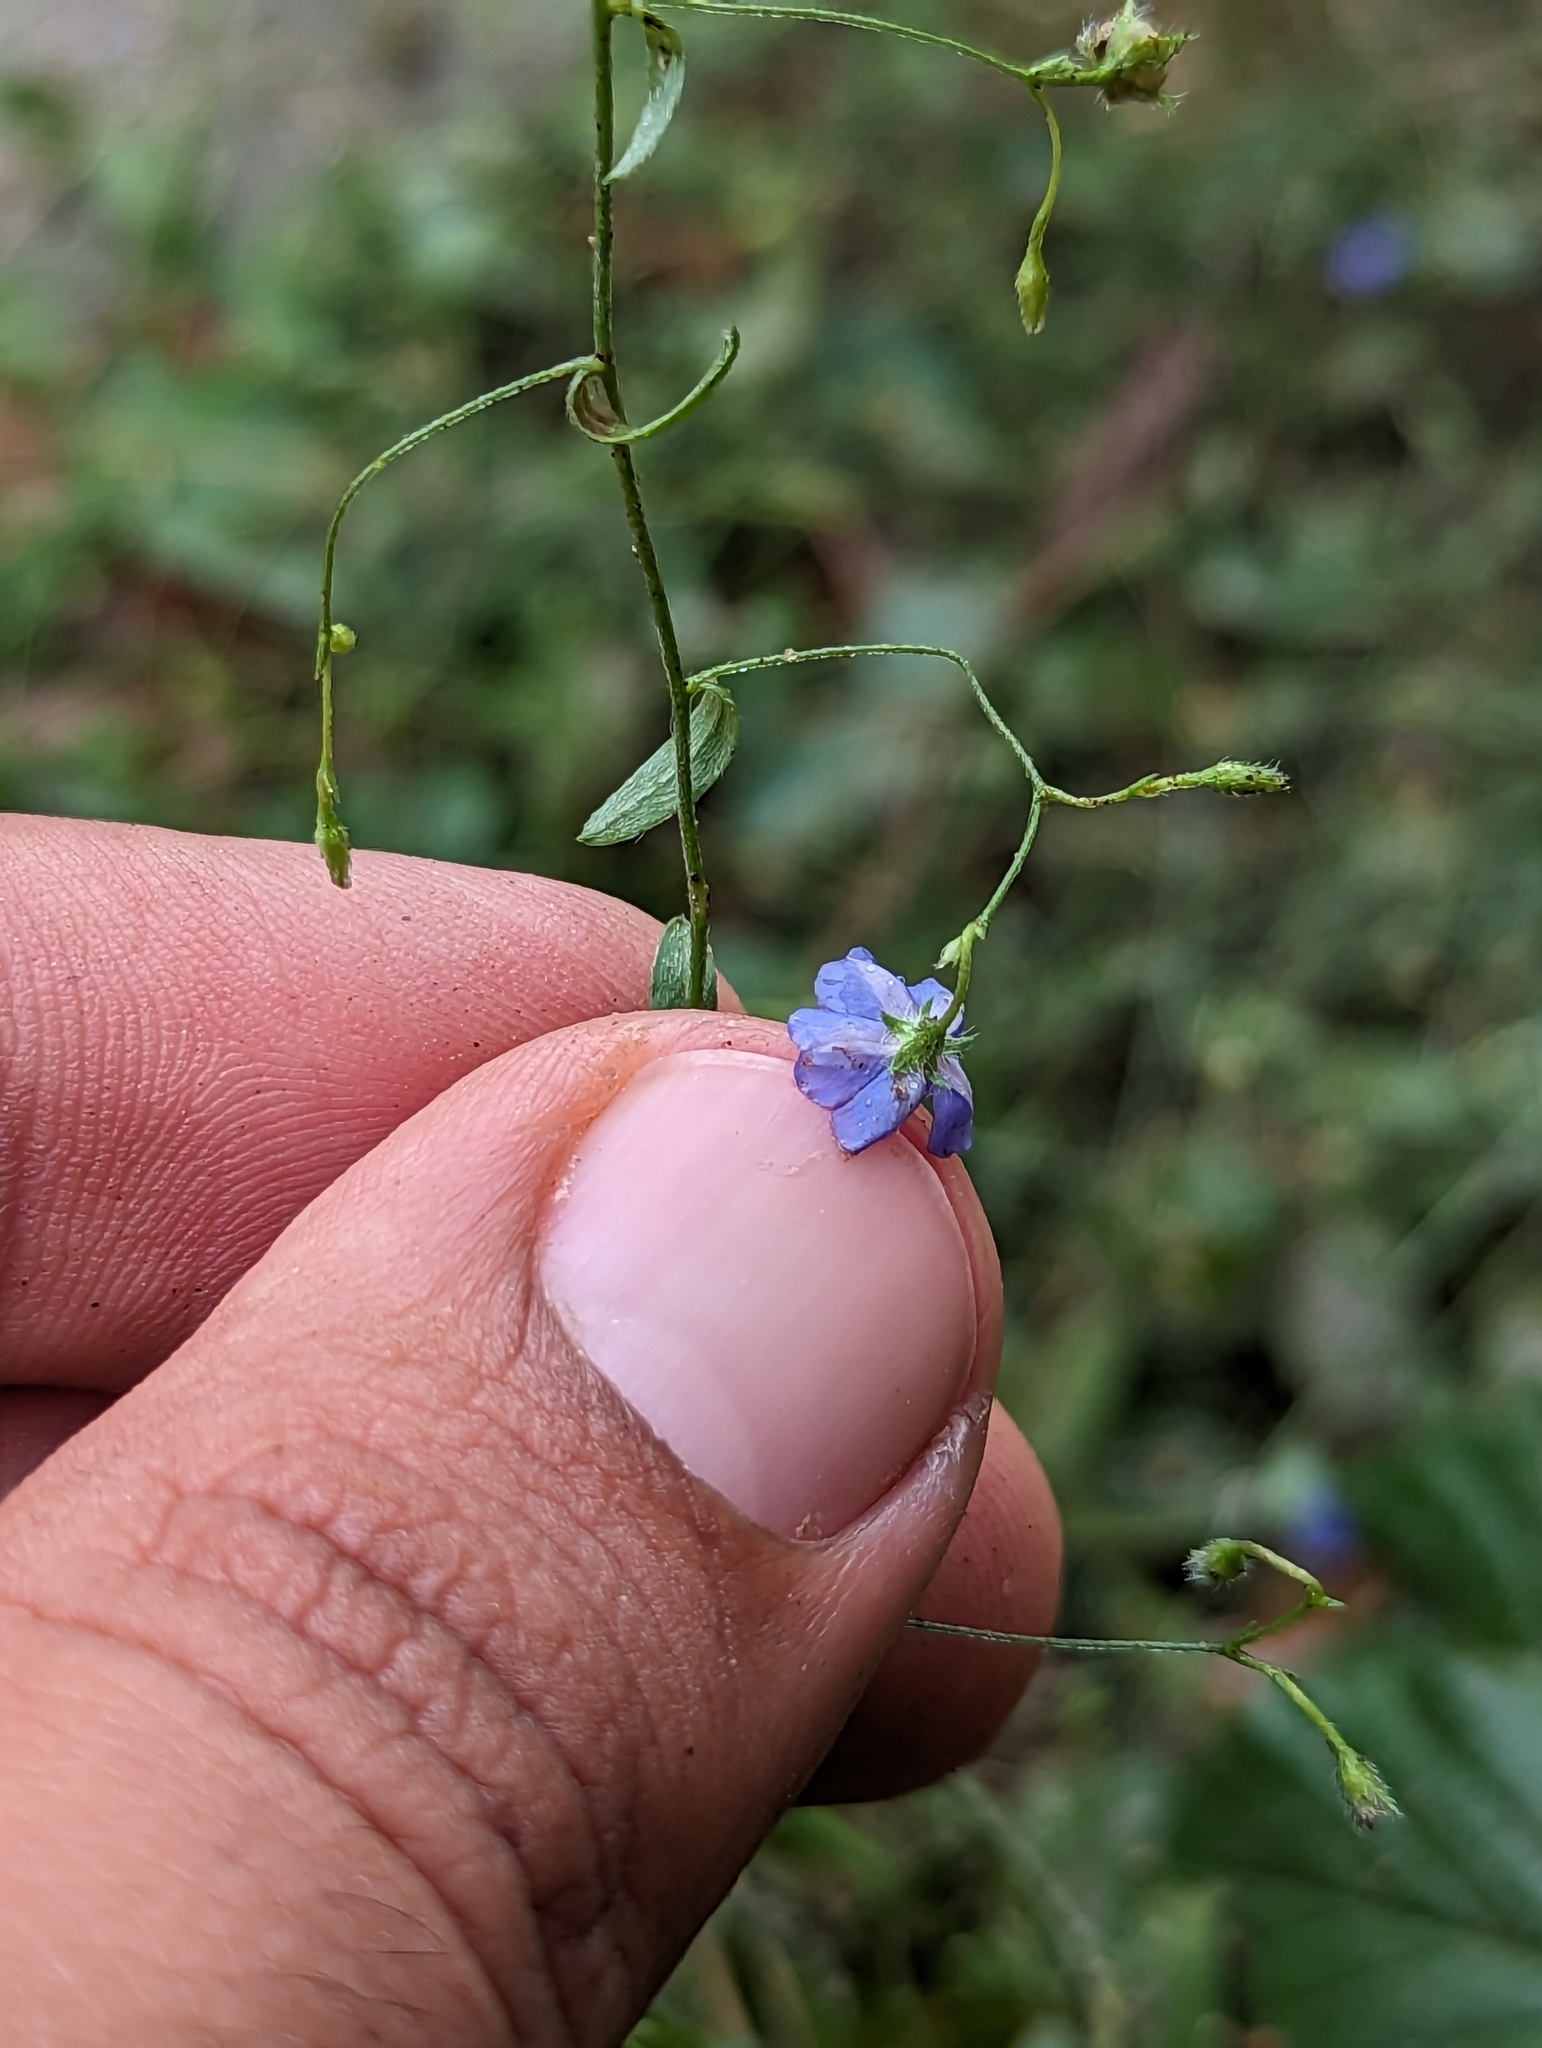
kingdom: Plantae
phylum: Tracheophyta
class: Magnoliopsida
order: Solanales
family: Convolvulaceae
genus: Evolvulus
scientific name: Evolvulus alsinoides
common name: Slender dwarf morning-glory
